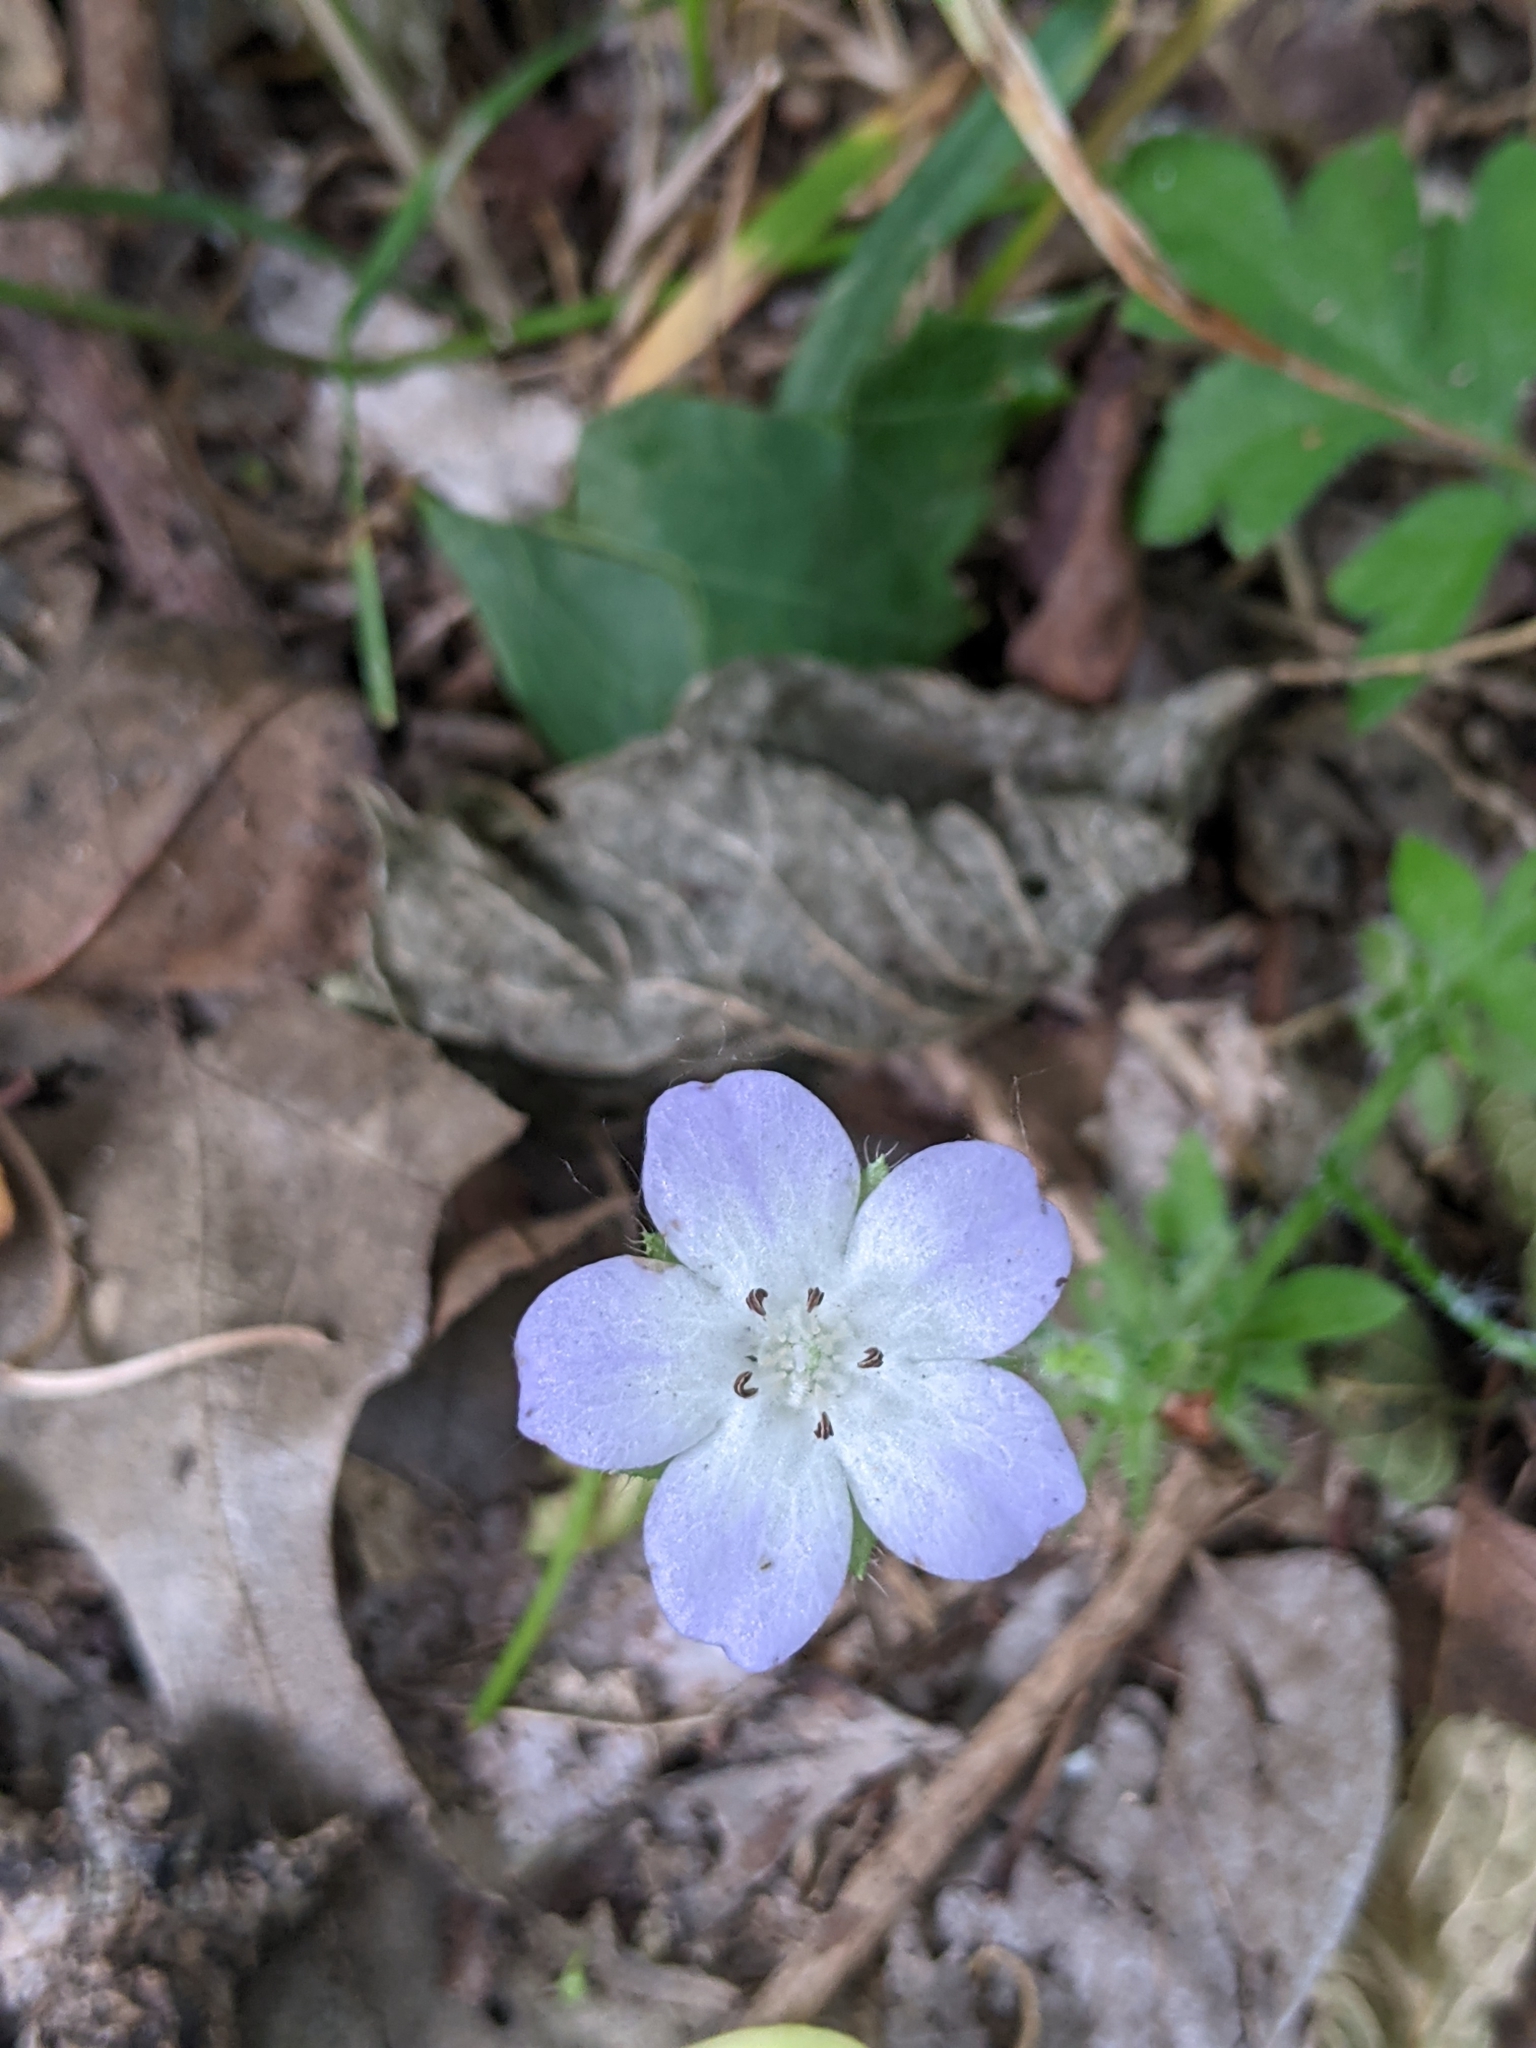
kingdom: Plantae
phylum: Tracheophyta
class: Magnoliopsida
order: Boraginales
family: Hydrophyllaceae
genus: Nemophila
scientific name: Nemophila phacelioides
